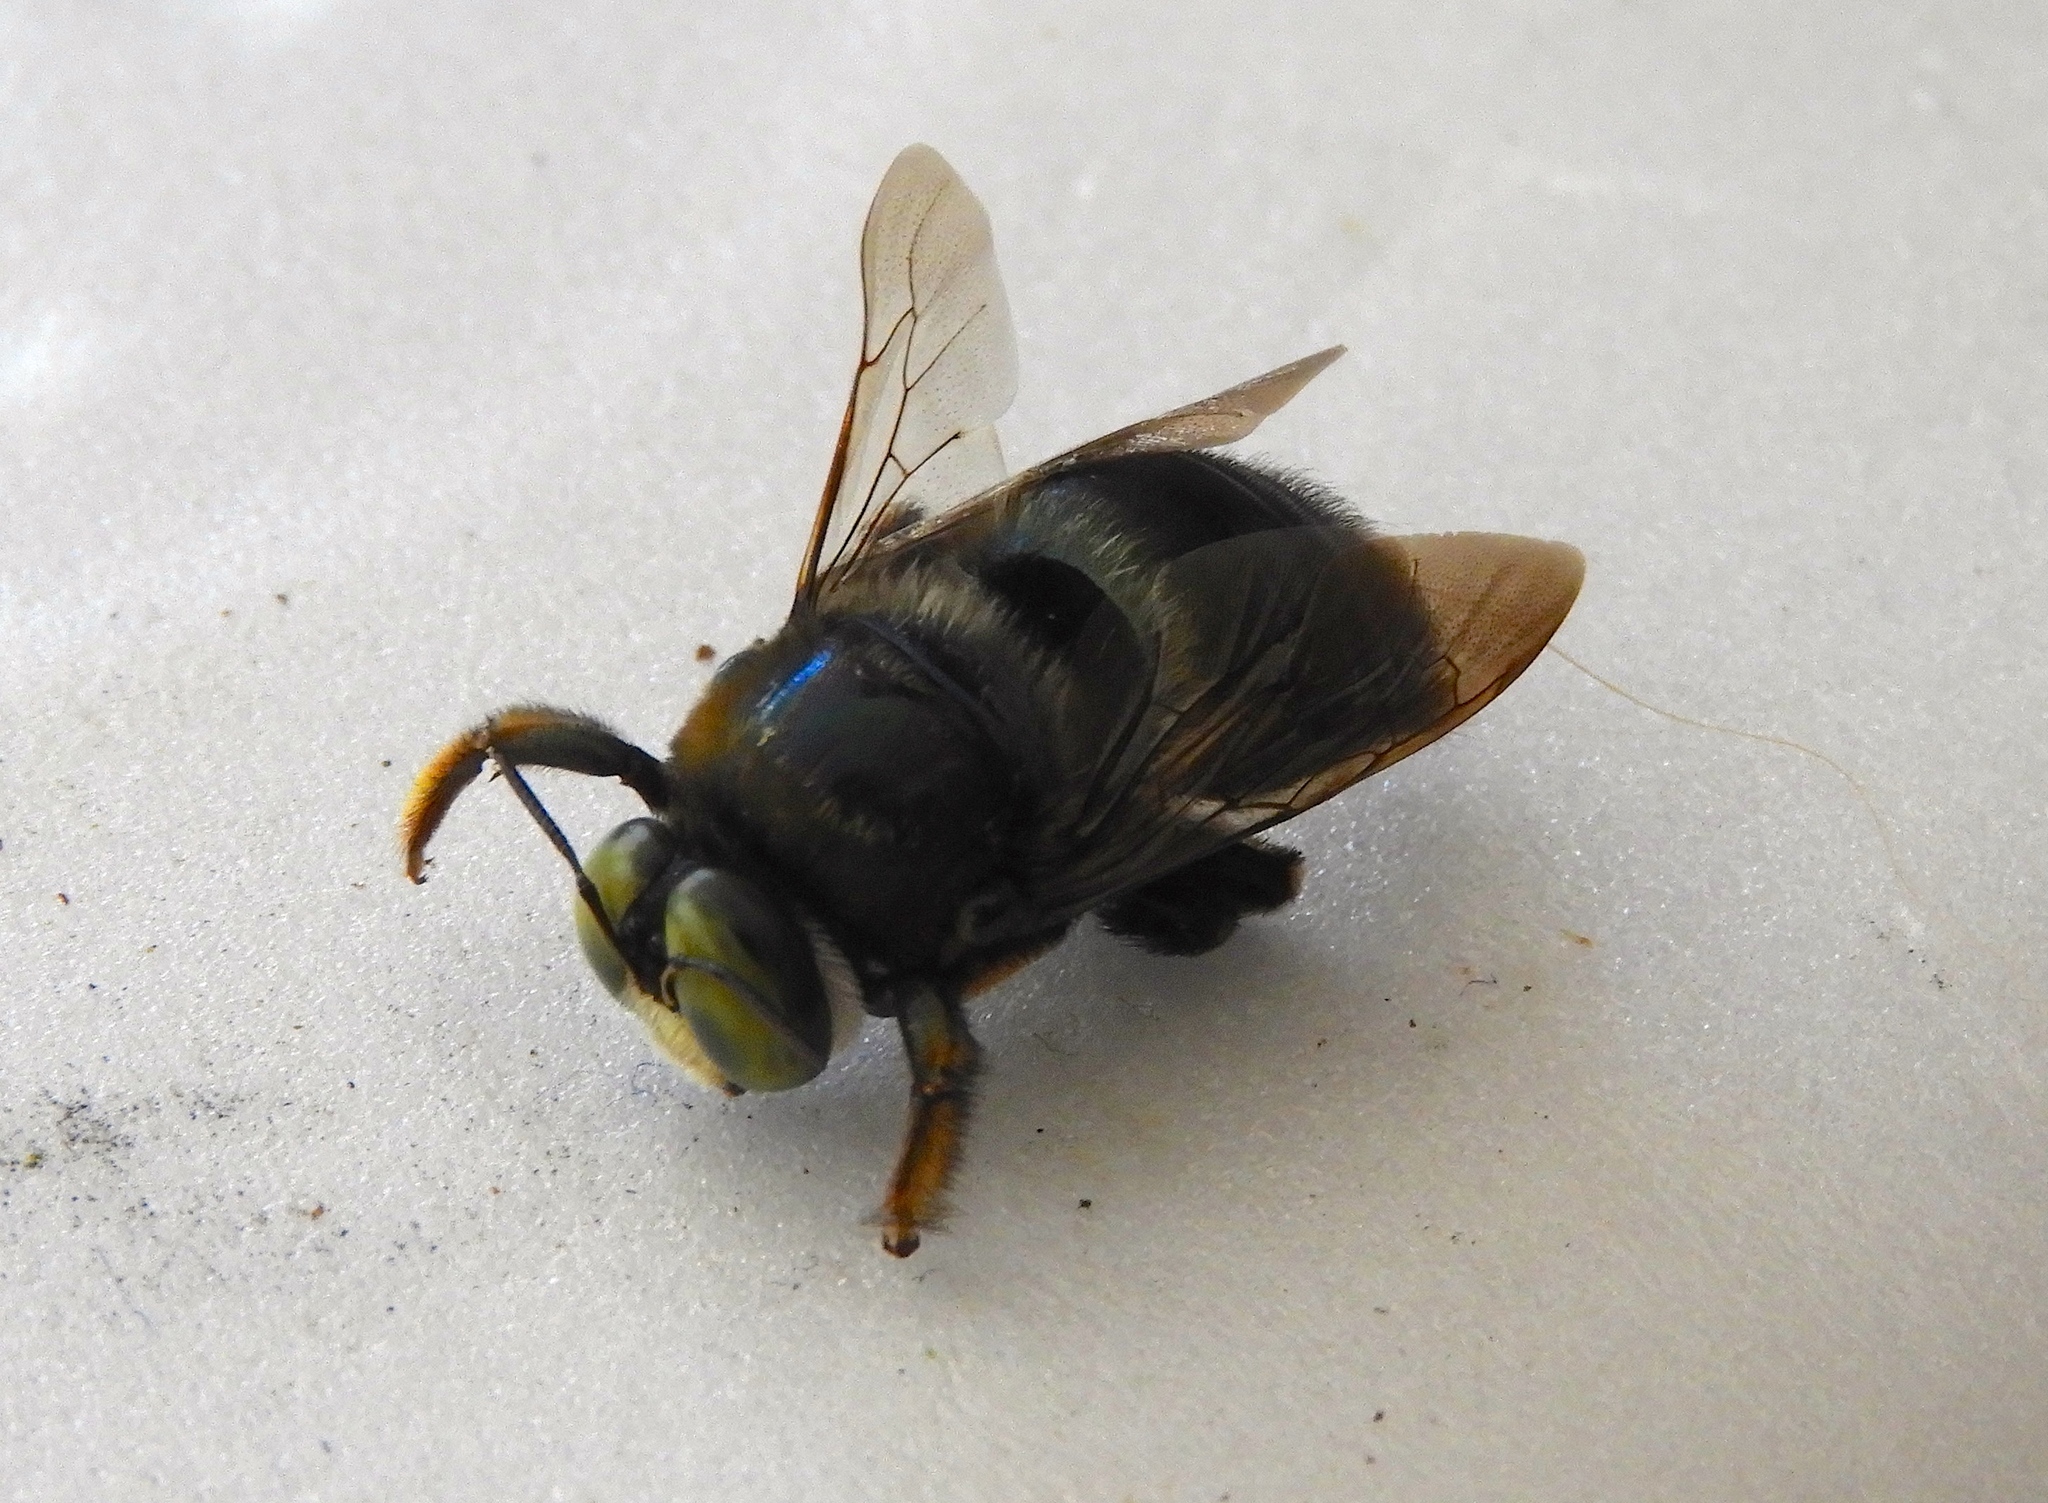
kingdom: Animalia
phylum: Arthropoda
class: Insecta
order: Hymenoptera
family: Apidae
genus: Xylocopa
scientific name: Xylocopa
